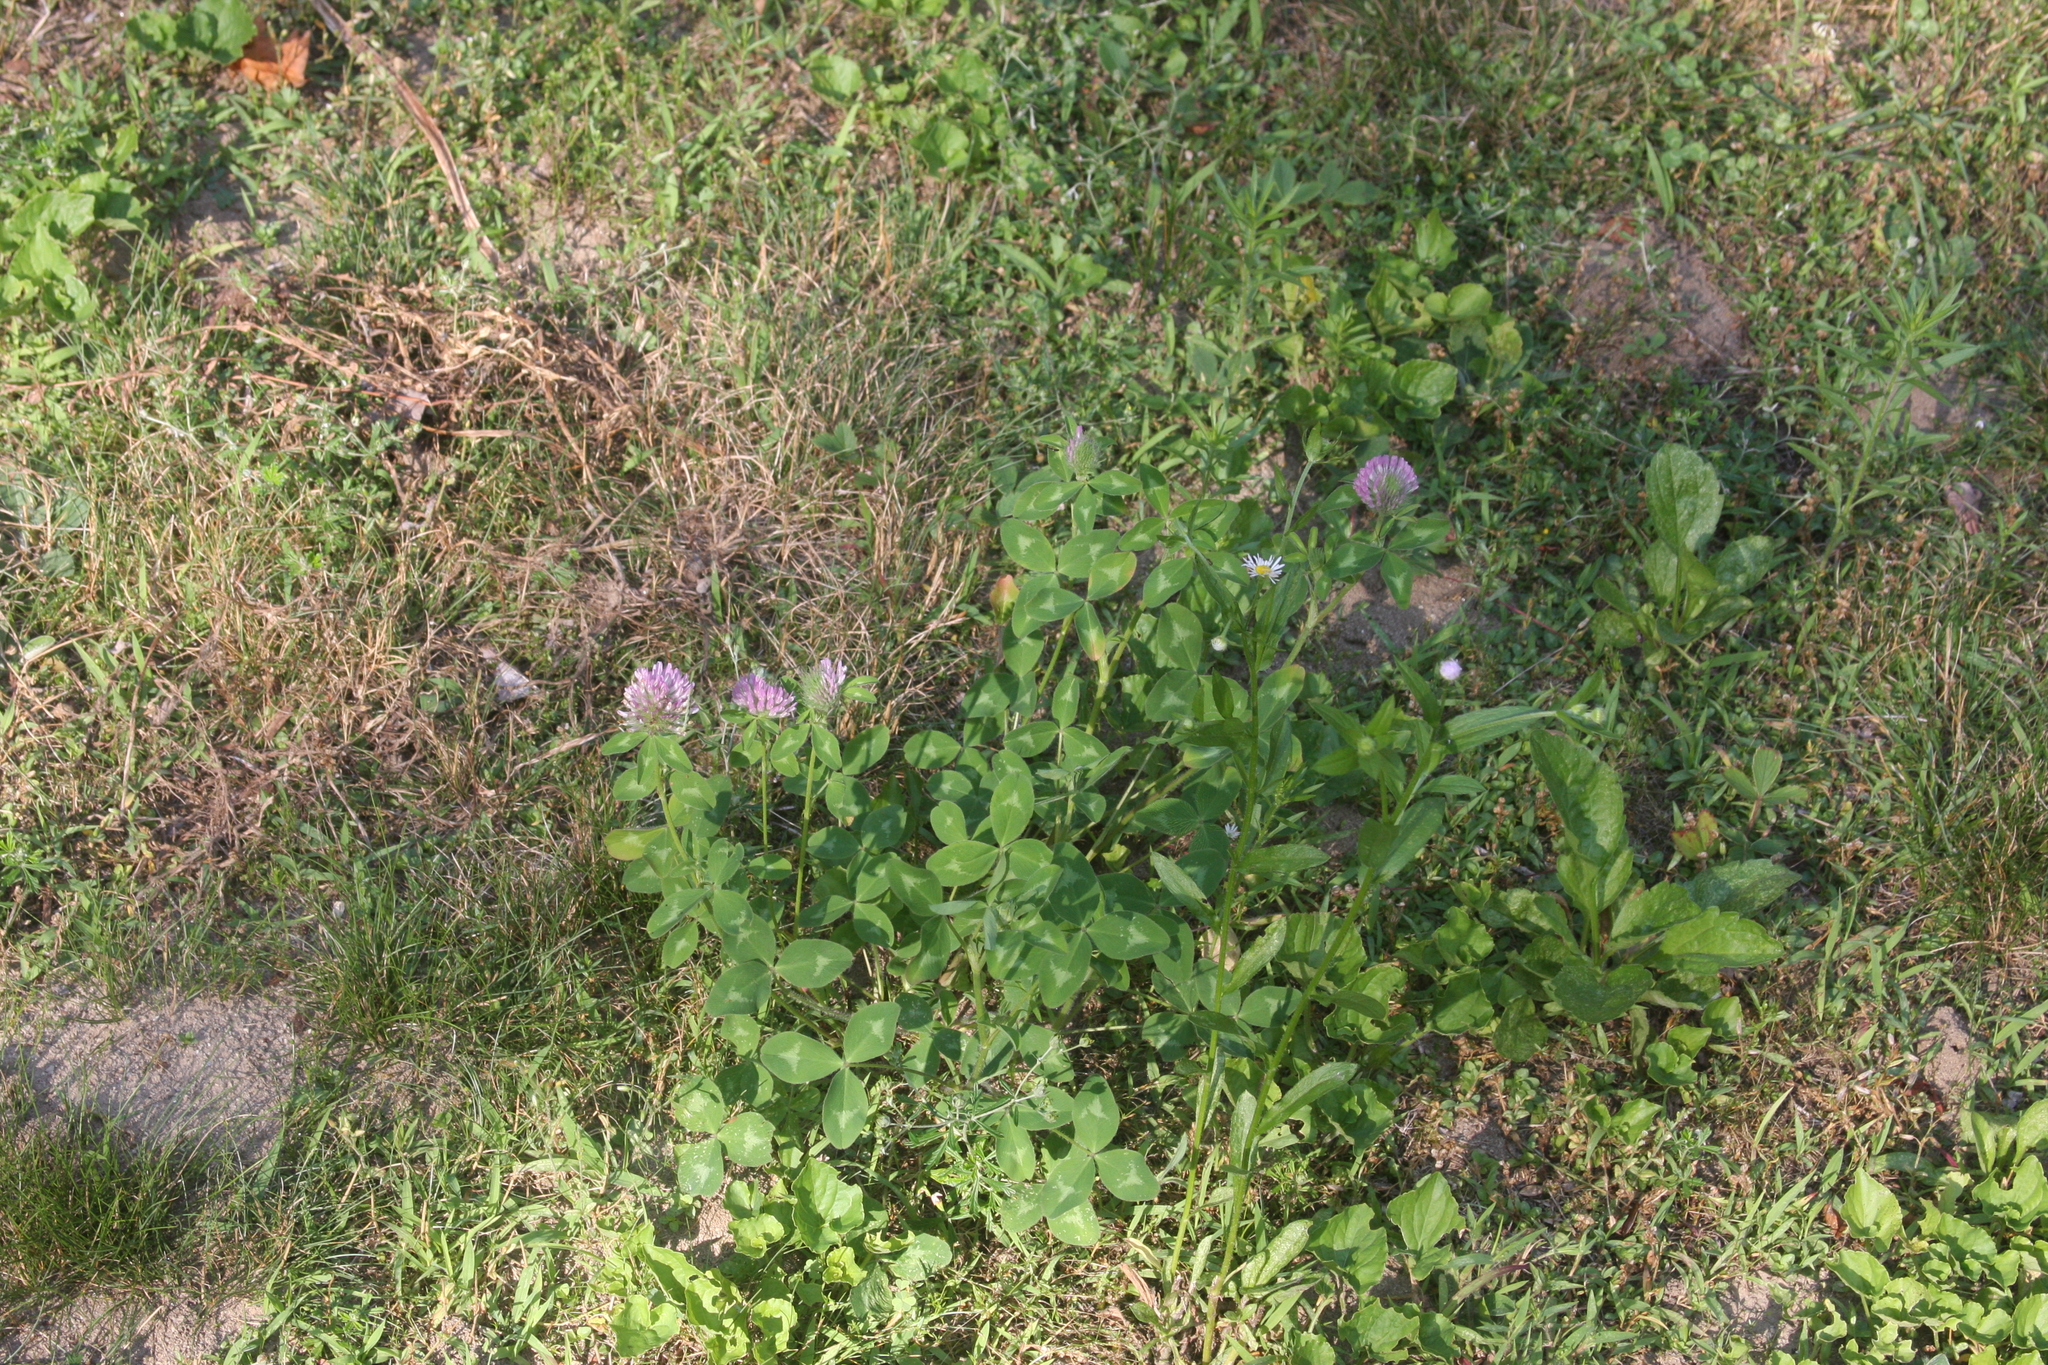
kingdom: Plantae
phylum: Tracheophyta
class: Magnoliopsida
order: Fabales
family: Fabaceae
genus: Trifolium
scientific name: Trifolium pratense
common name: Red clover
